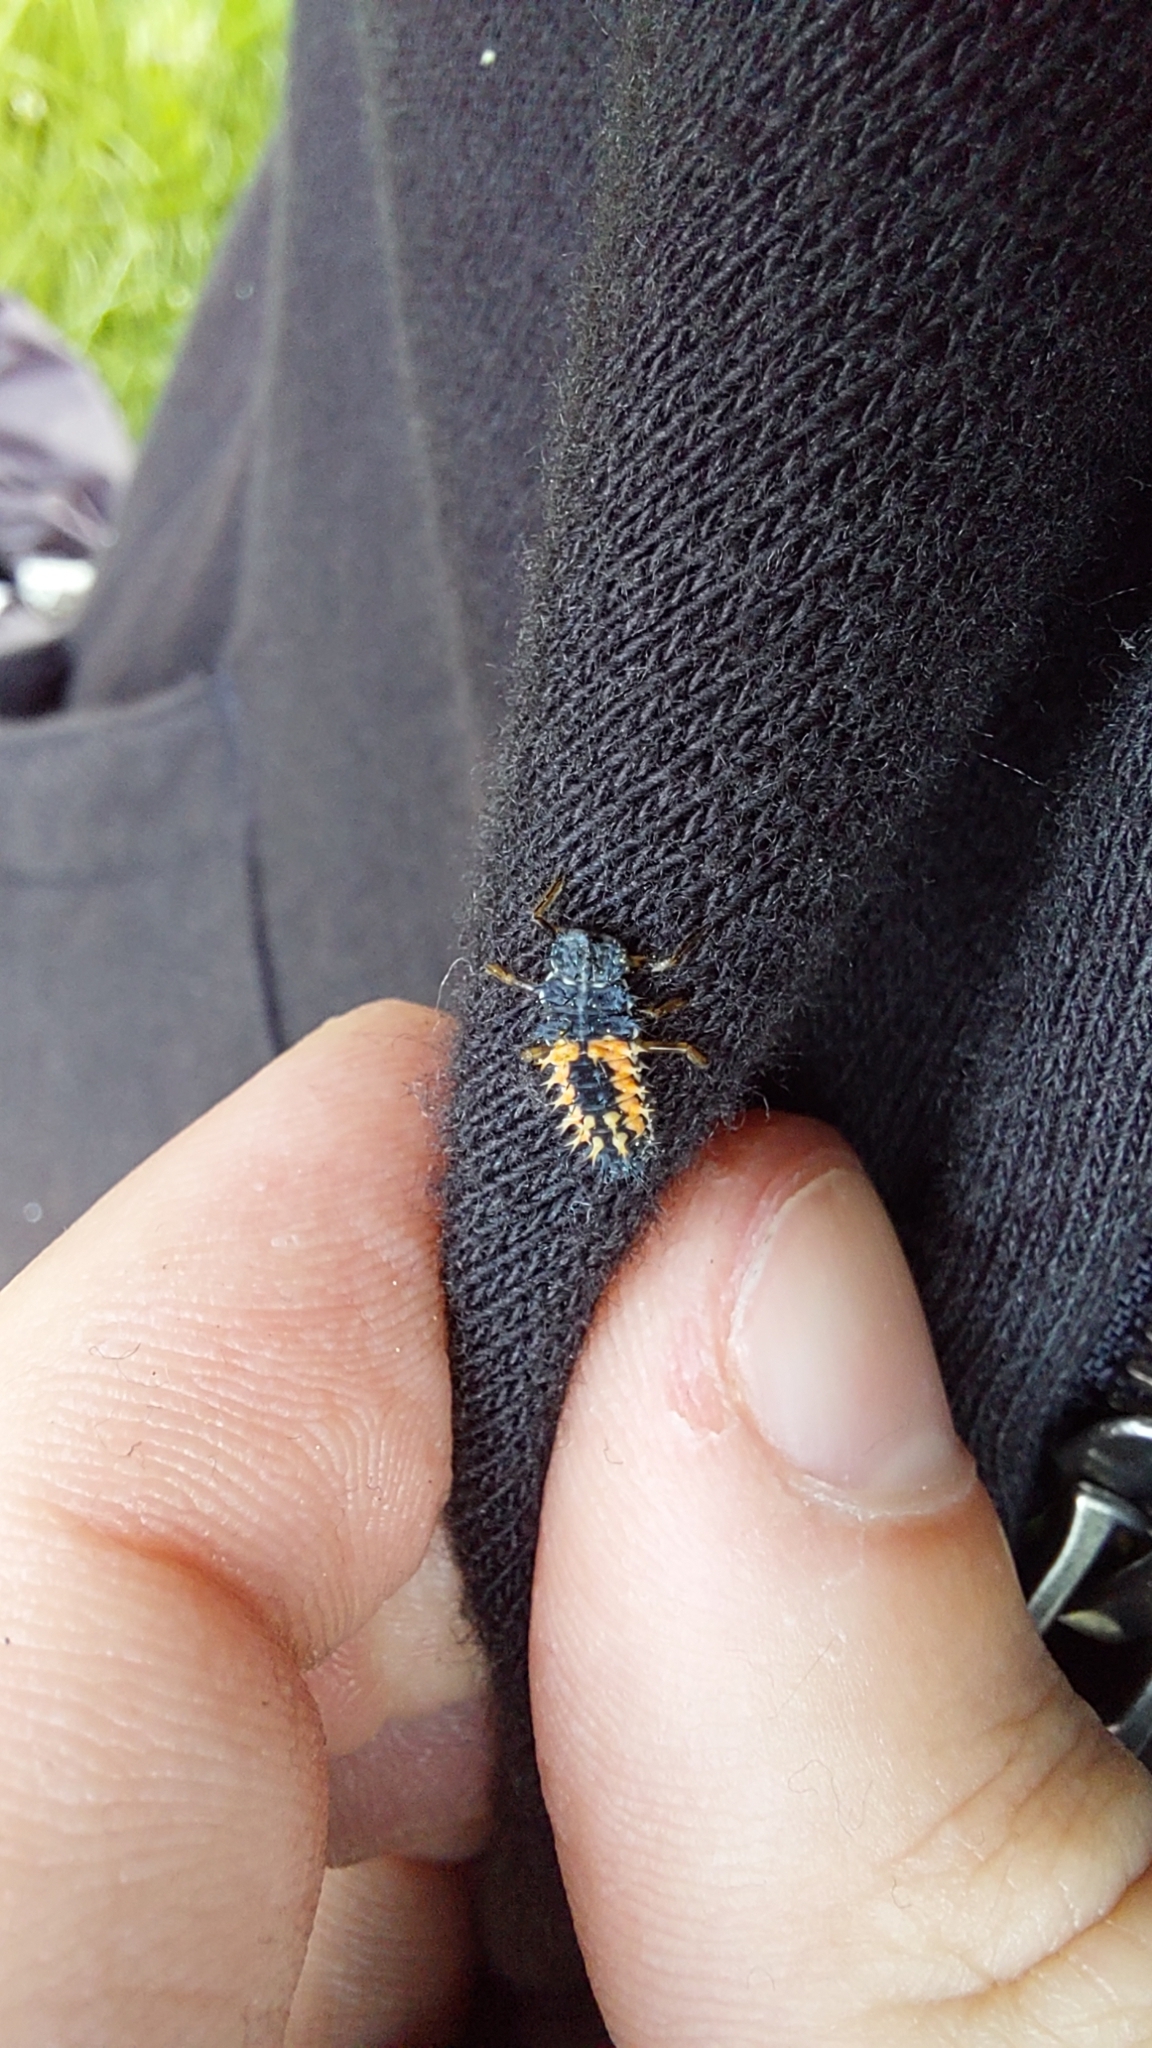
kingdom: Animalia
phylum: Arthropoda
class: Insecta
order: Coleoptera
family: Coccinellidae
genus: Harmonia
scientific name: Harmonia axyridis
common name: Harlequin ladybird
